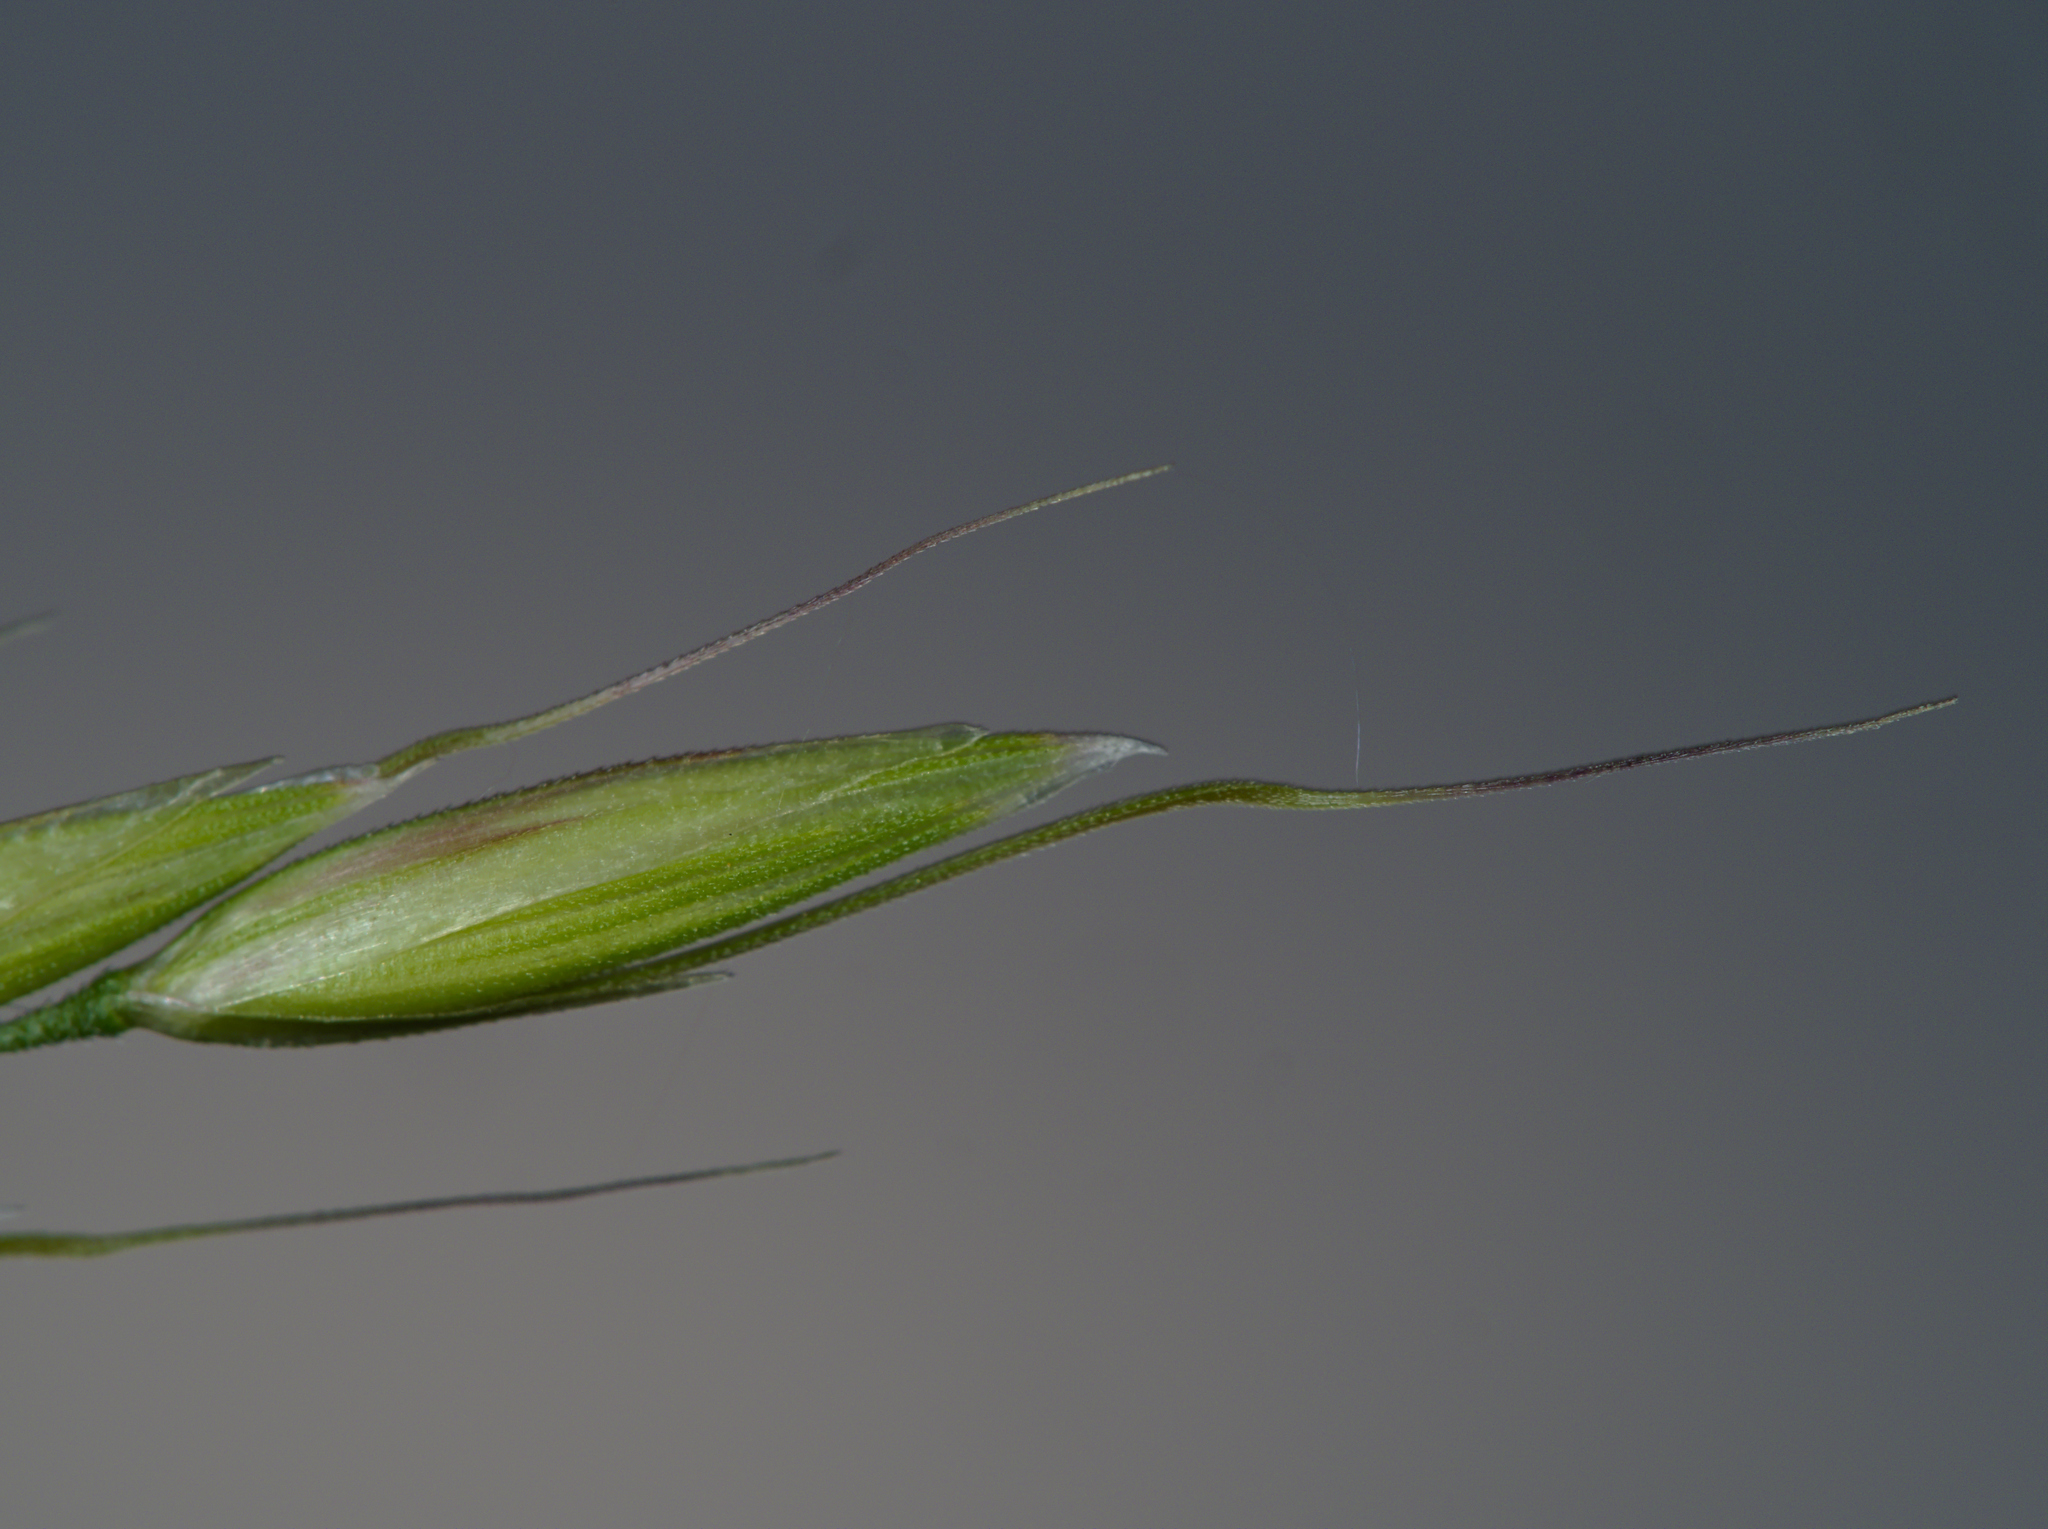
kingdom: Plantae
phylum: Tracheophyta
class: Liliopsida
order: Poales
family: Poaceae
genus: Arrhenatherum
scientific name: Arrhenatherum elatius
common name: Tall oatgrass
